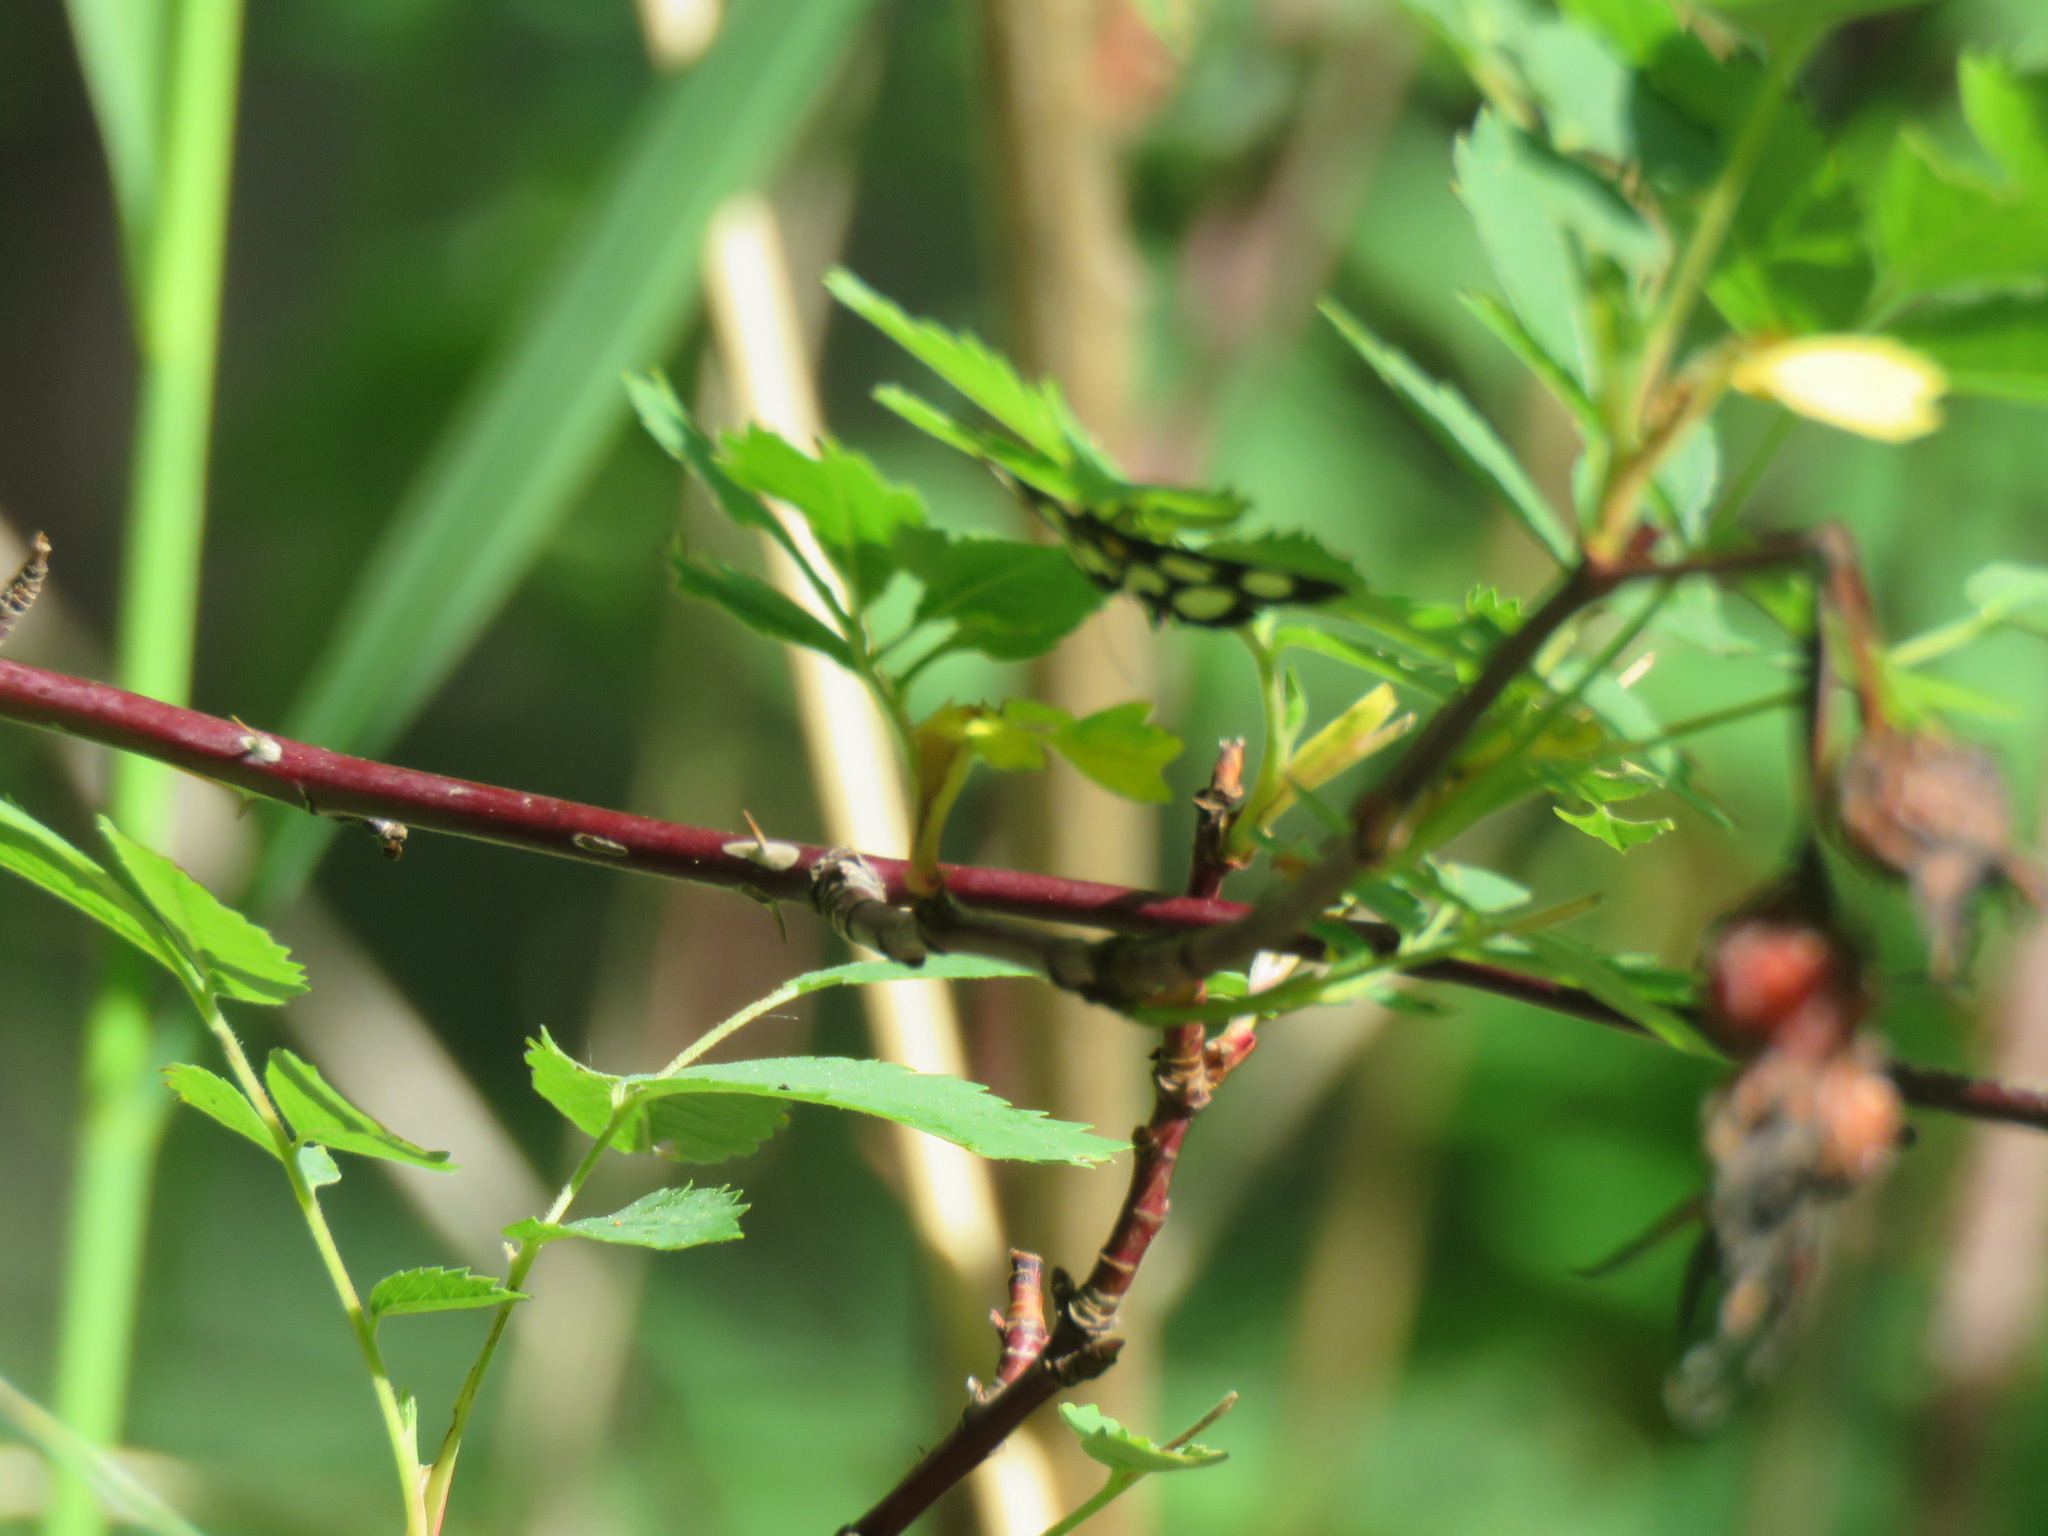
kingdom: Animalia
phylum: Arthropoda
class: Insecta
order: Lepidoptera
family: Crambidae
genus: Anania
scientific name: Anania funebris
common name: White-spotted sable moth
